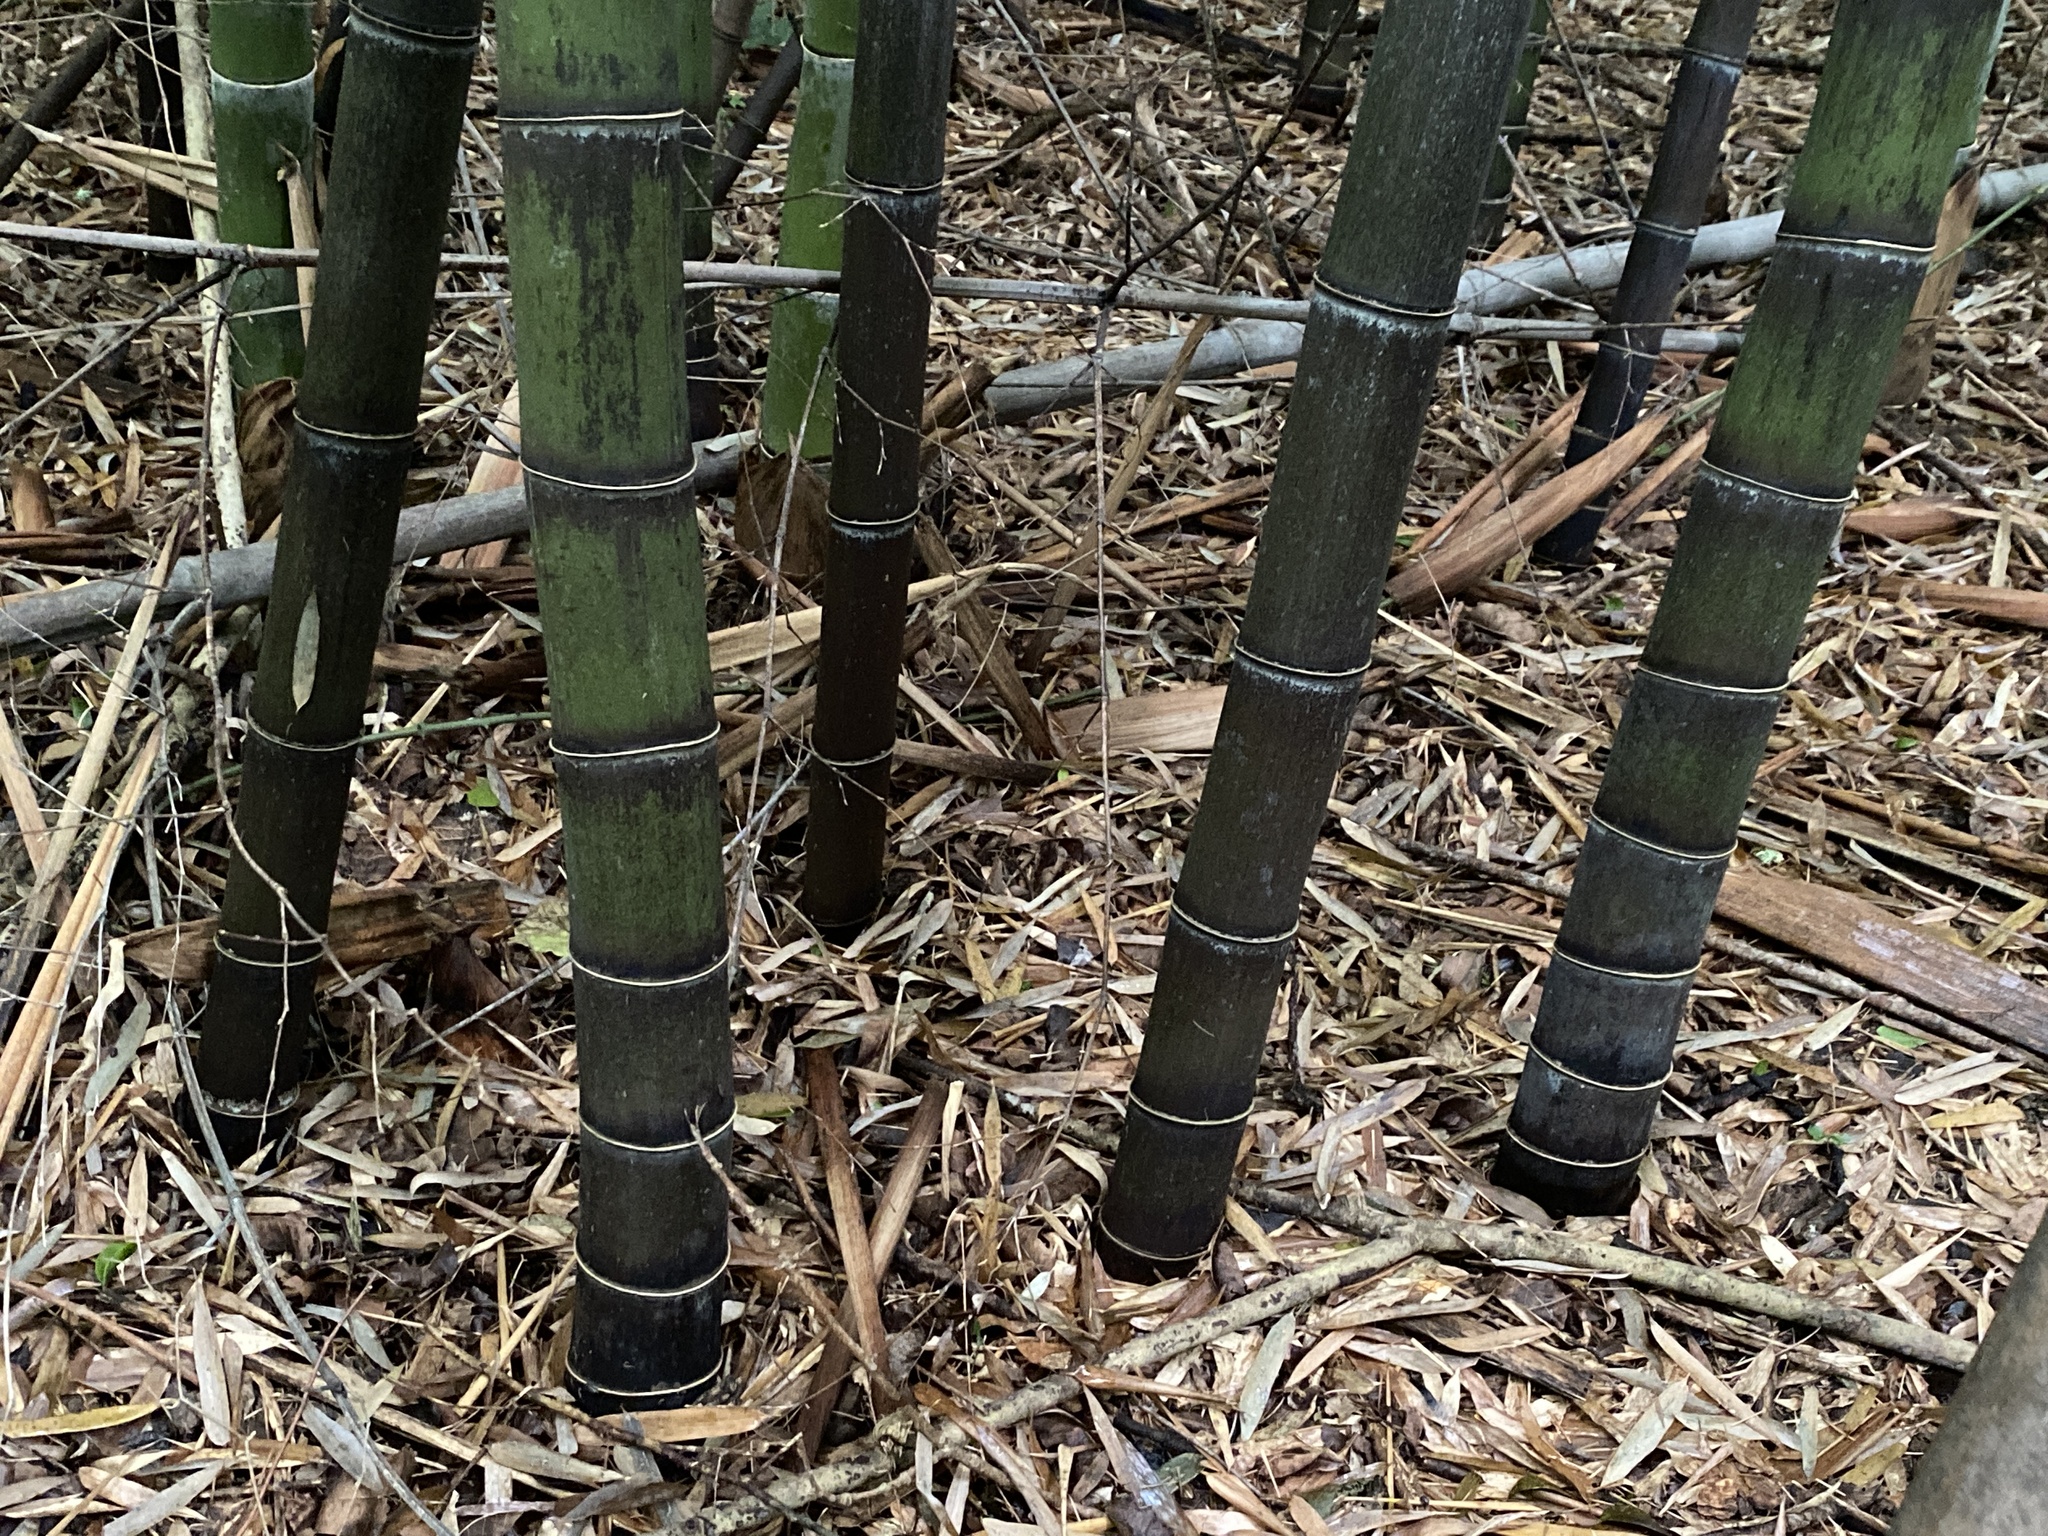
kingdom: Plantae
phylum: Tracheophyta
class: Liliopsida
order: Poales
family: Poaceae
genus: Phyllostachys
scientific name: Phyllostachys nigra
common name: Black bamboo
